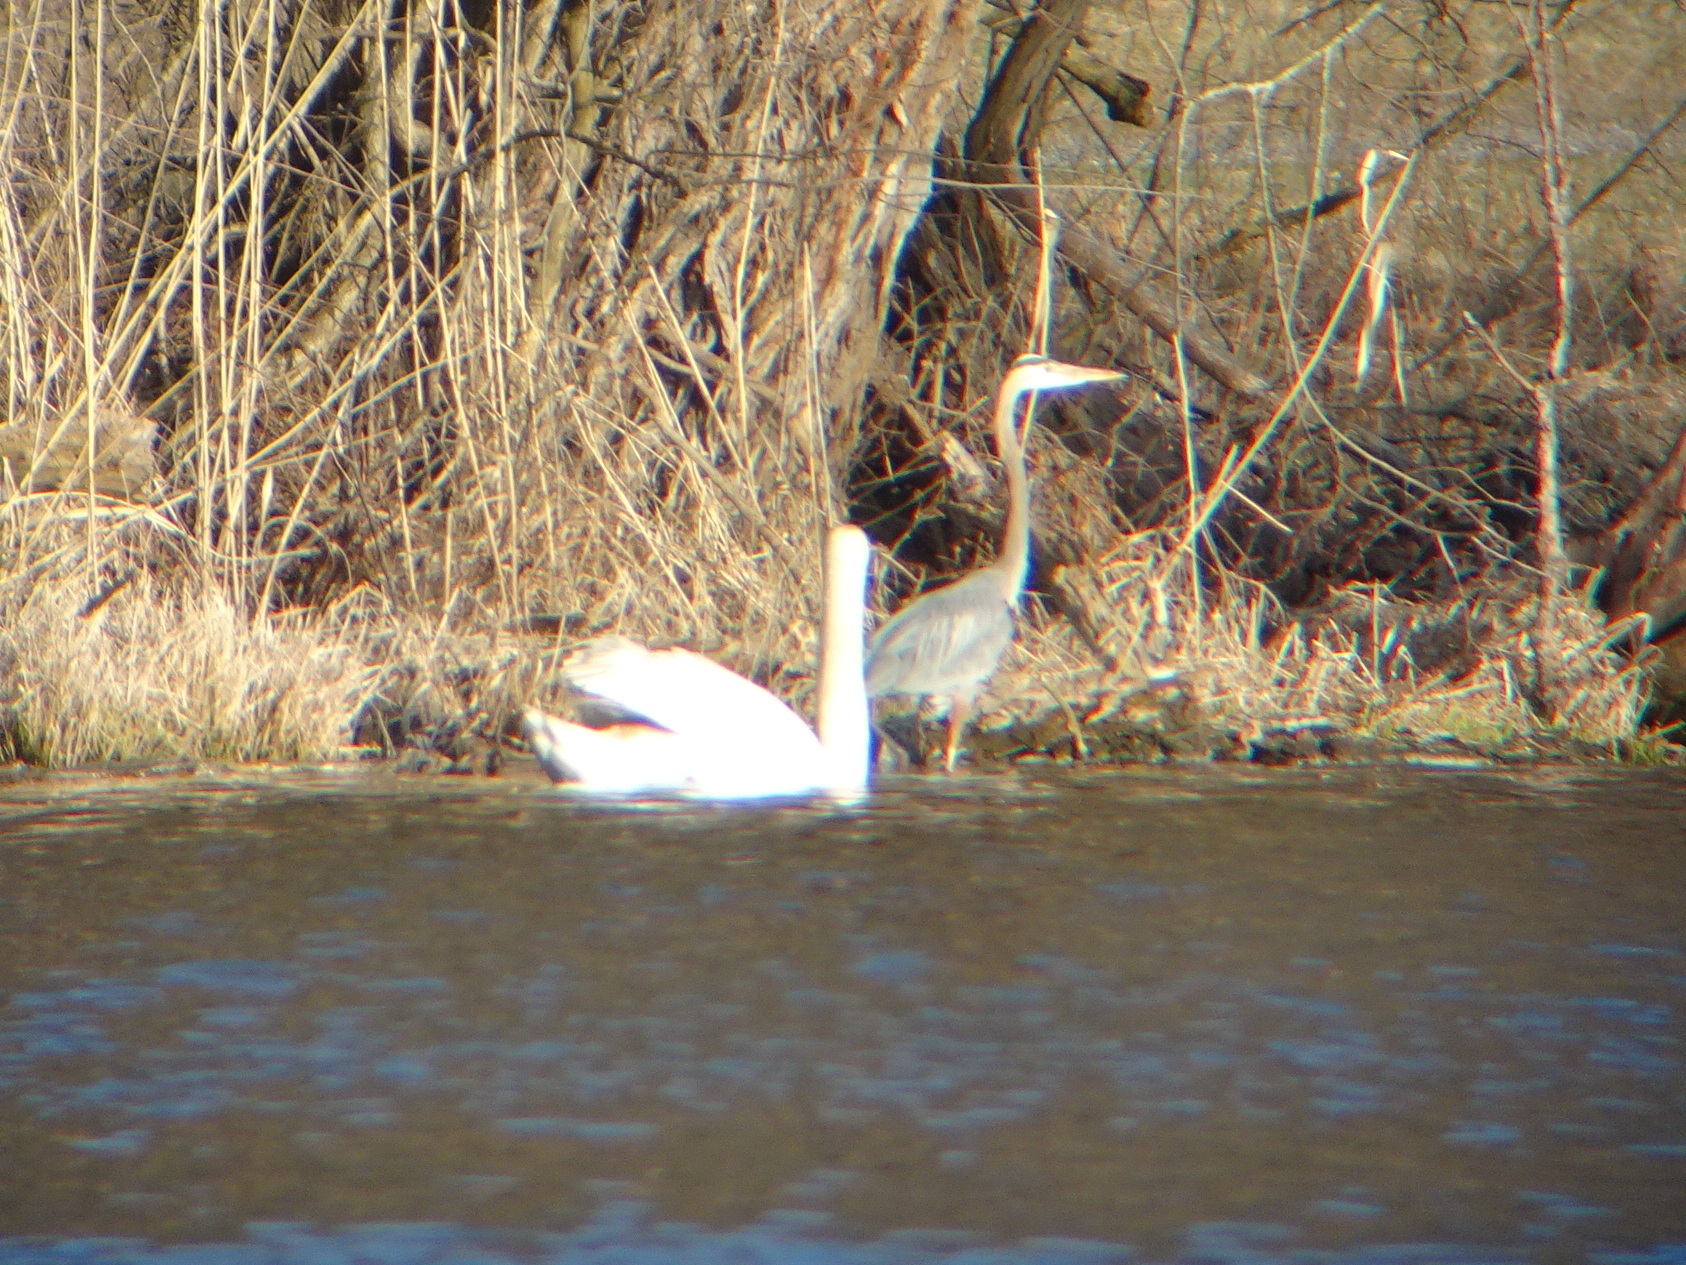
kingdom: Animalia
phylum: Chordata
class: Aves
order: Pelecaniformes
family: Ardeidae
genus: Ardea
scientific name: Ardea herodias
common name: Great blue heron
